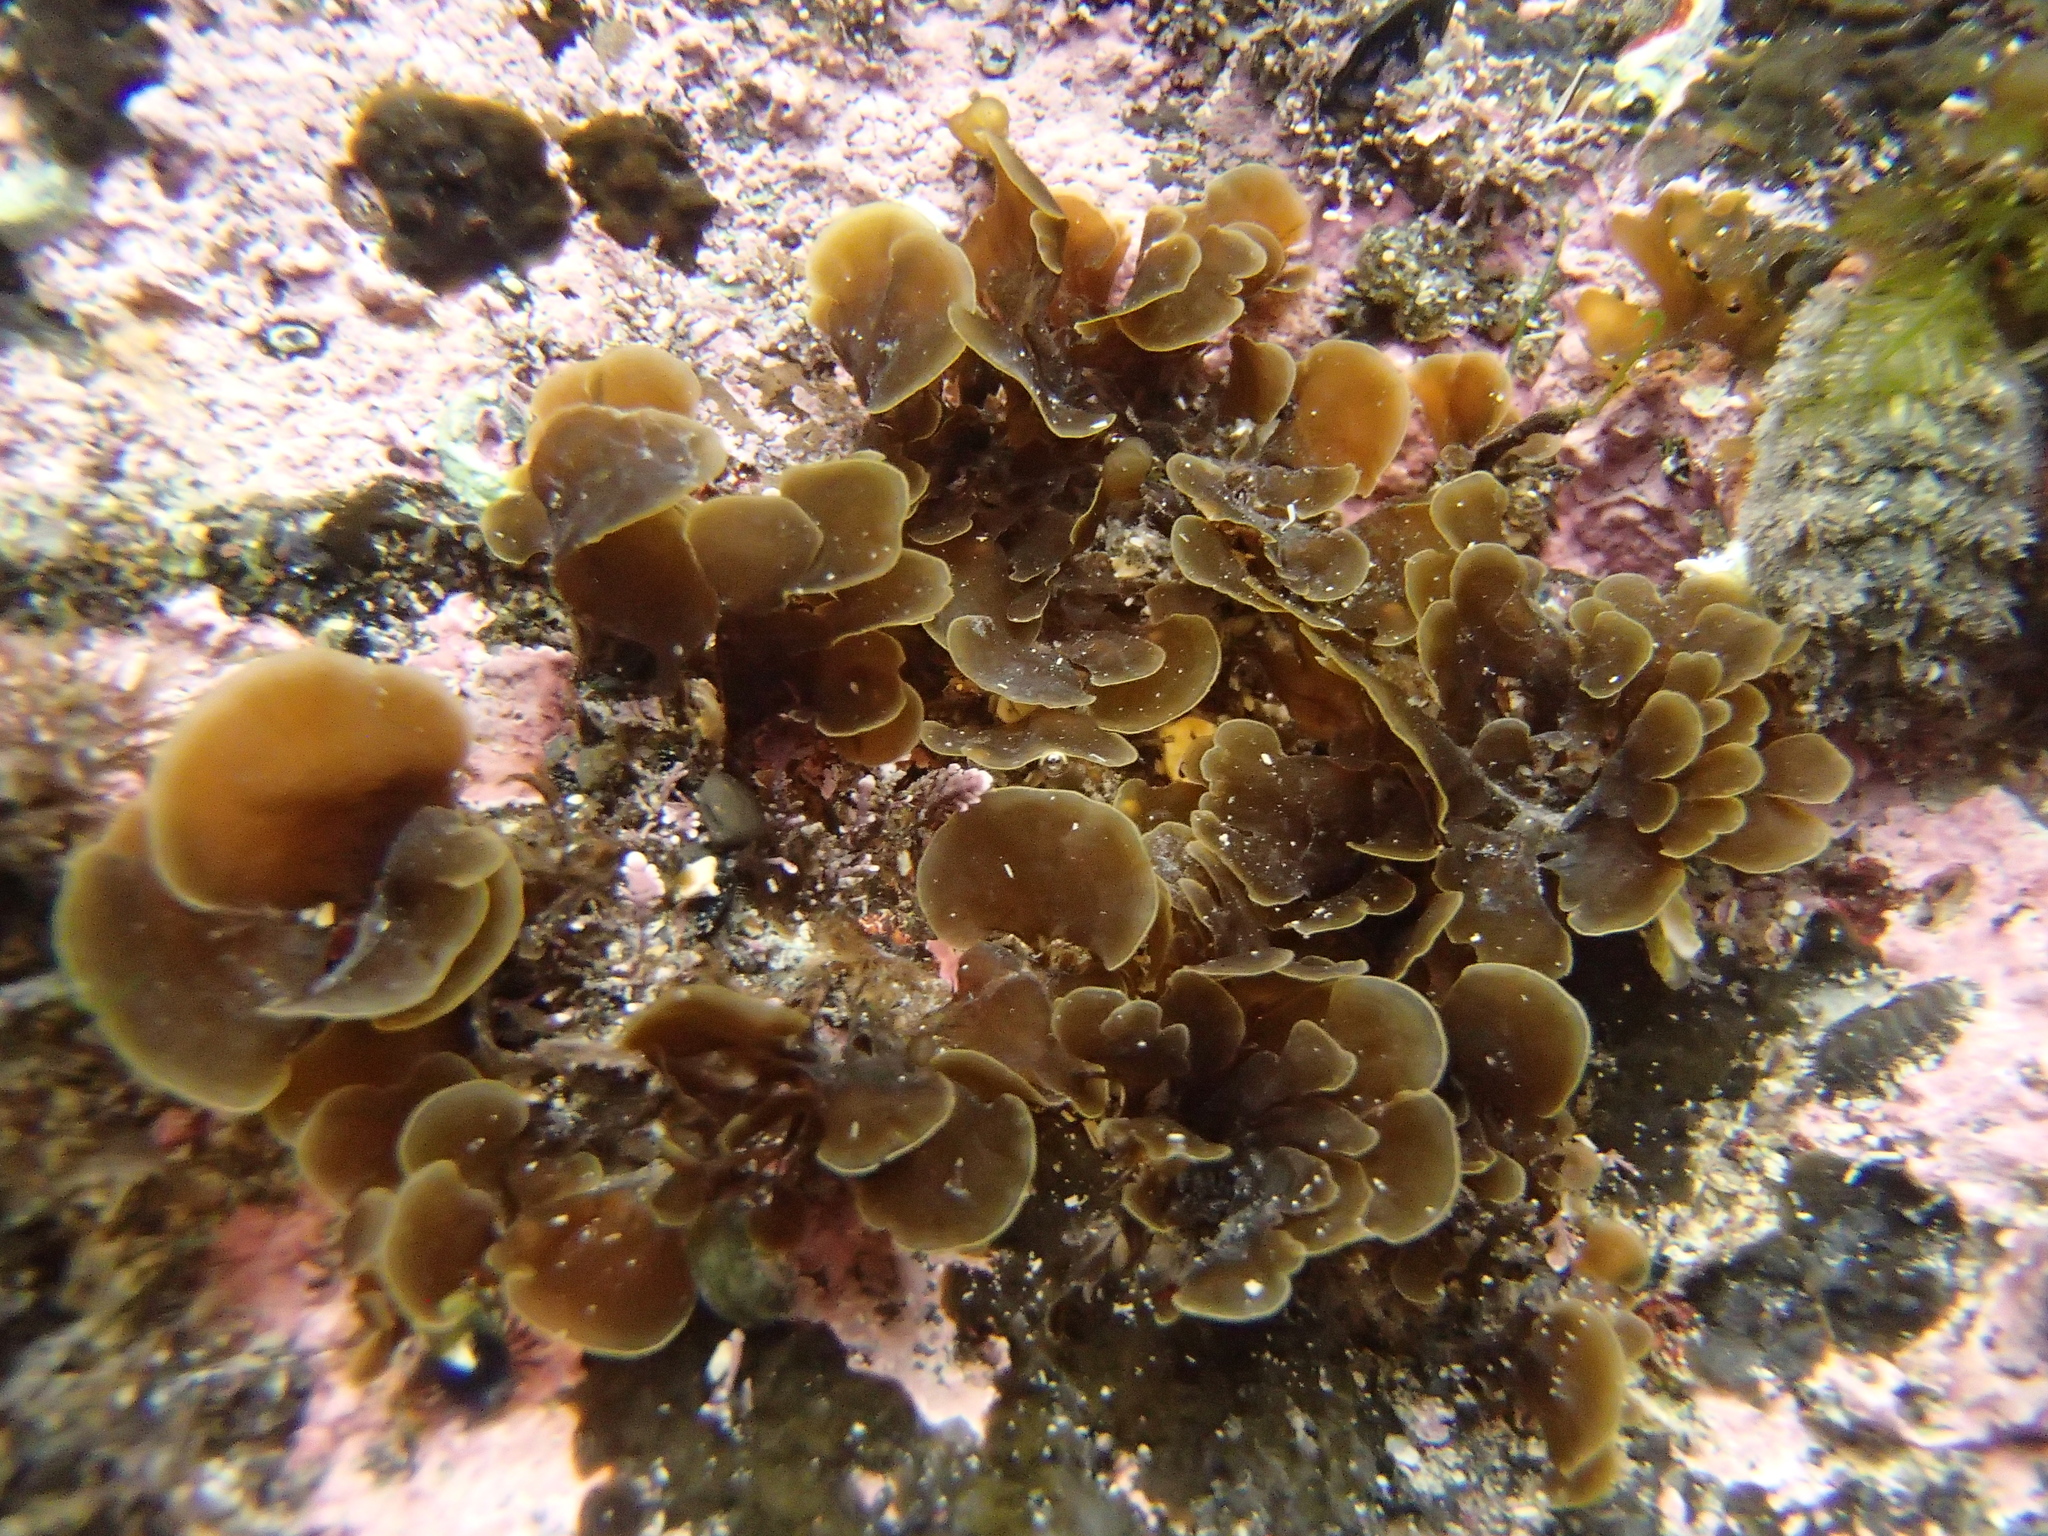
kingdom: Chromista
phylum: Ochrophyta
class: Phaeophyceae
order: Syringodermatales
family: Syringodermataceae
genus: Microzonia
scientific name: Microzonia velutina
